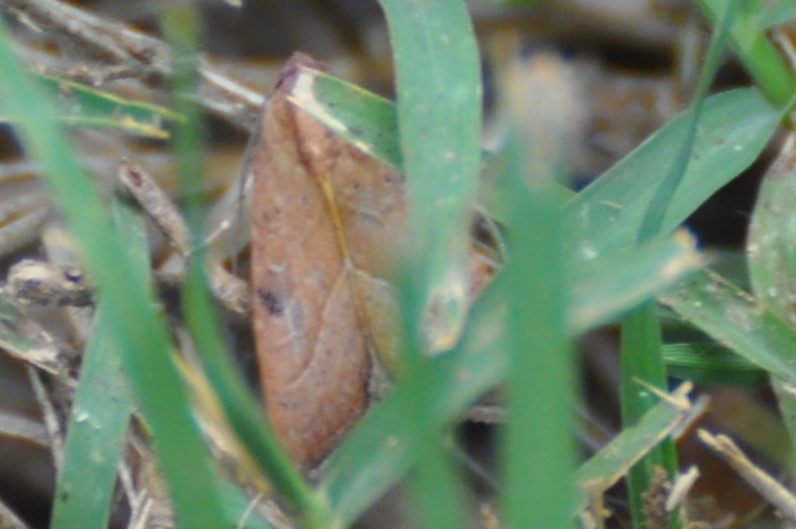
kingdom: Animalia
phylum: Arthropoda
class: Insecta
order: Lepidoptera
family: Noctuidae
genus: Galgula
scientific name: Galgula partita
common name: Wedgeling
